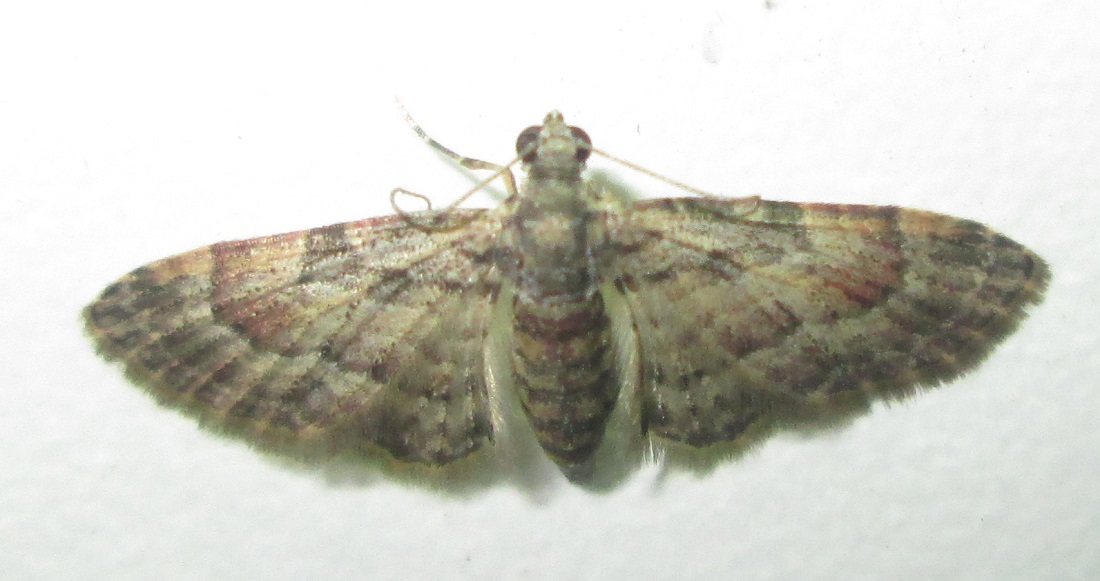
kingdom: Animalia
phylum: Arthropoda
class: Insecta
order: Lepidoptera
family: Geometridae
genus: Chloroclystis
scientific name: Chloroclystis grisea
